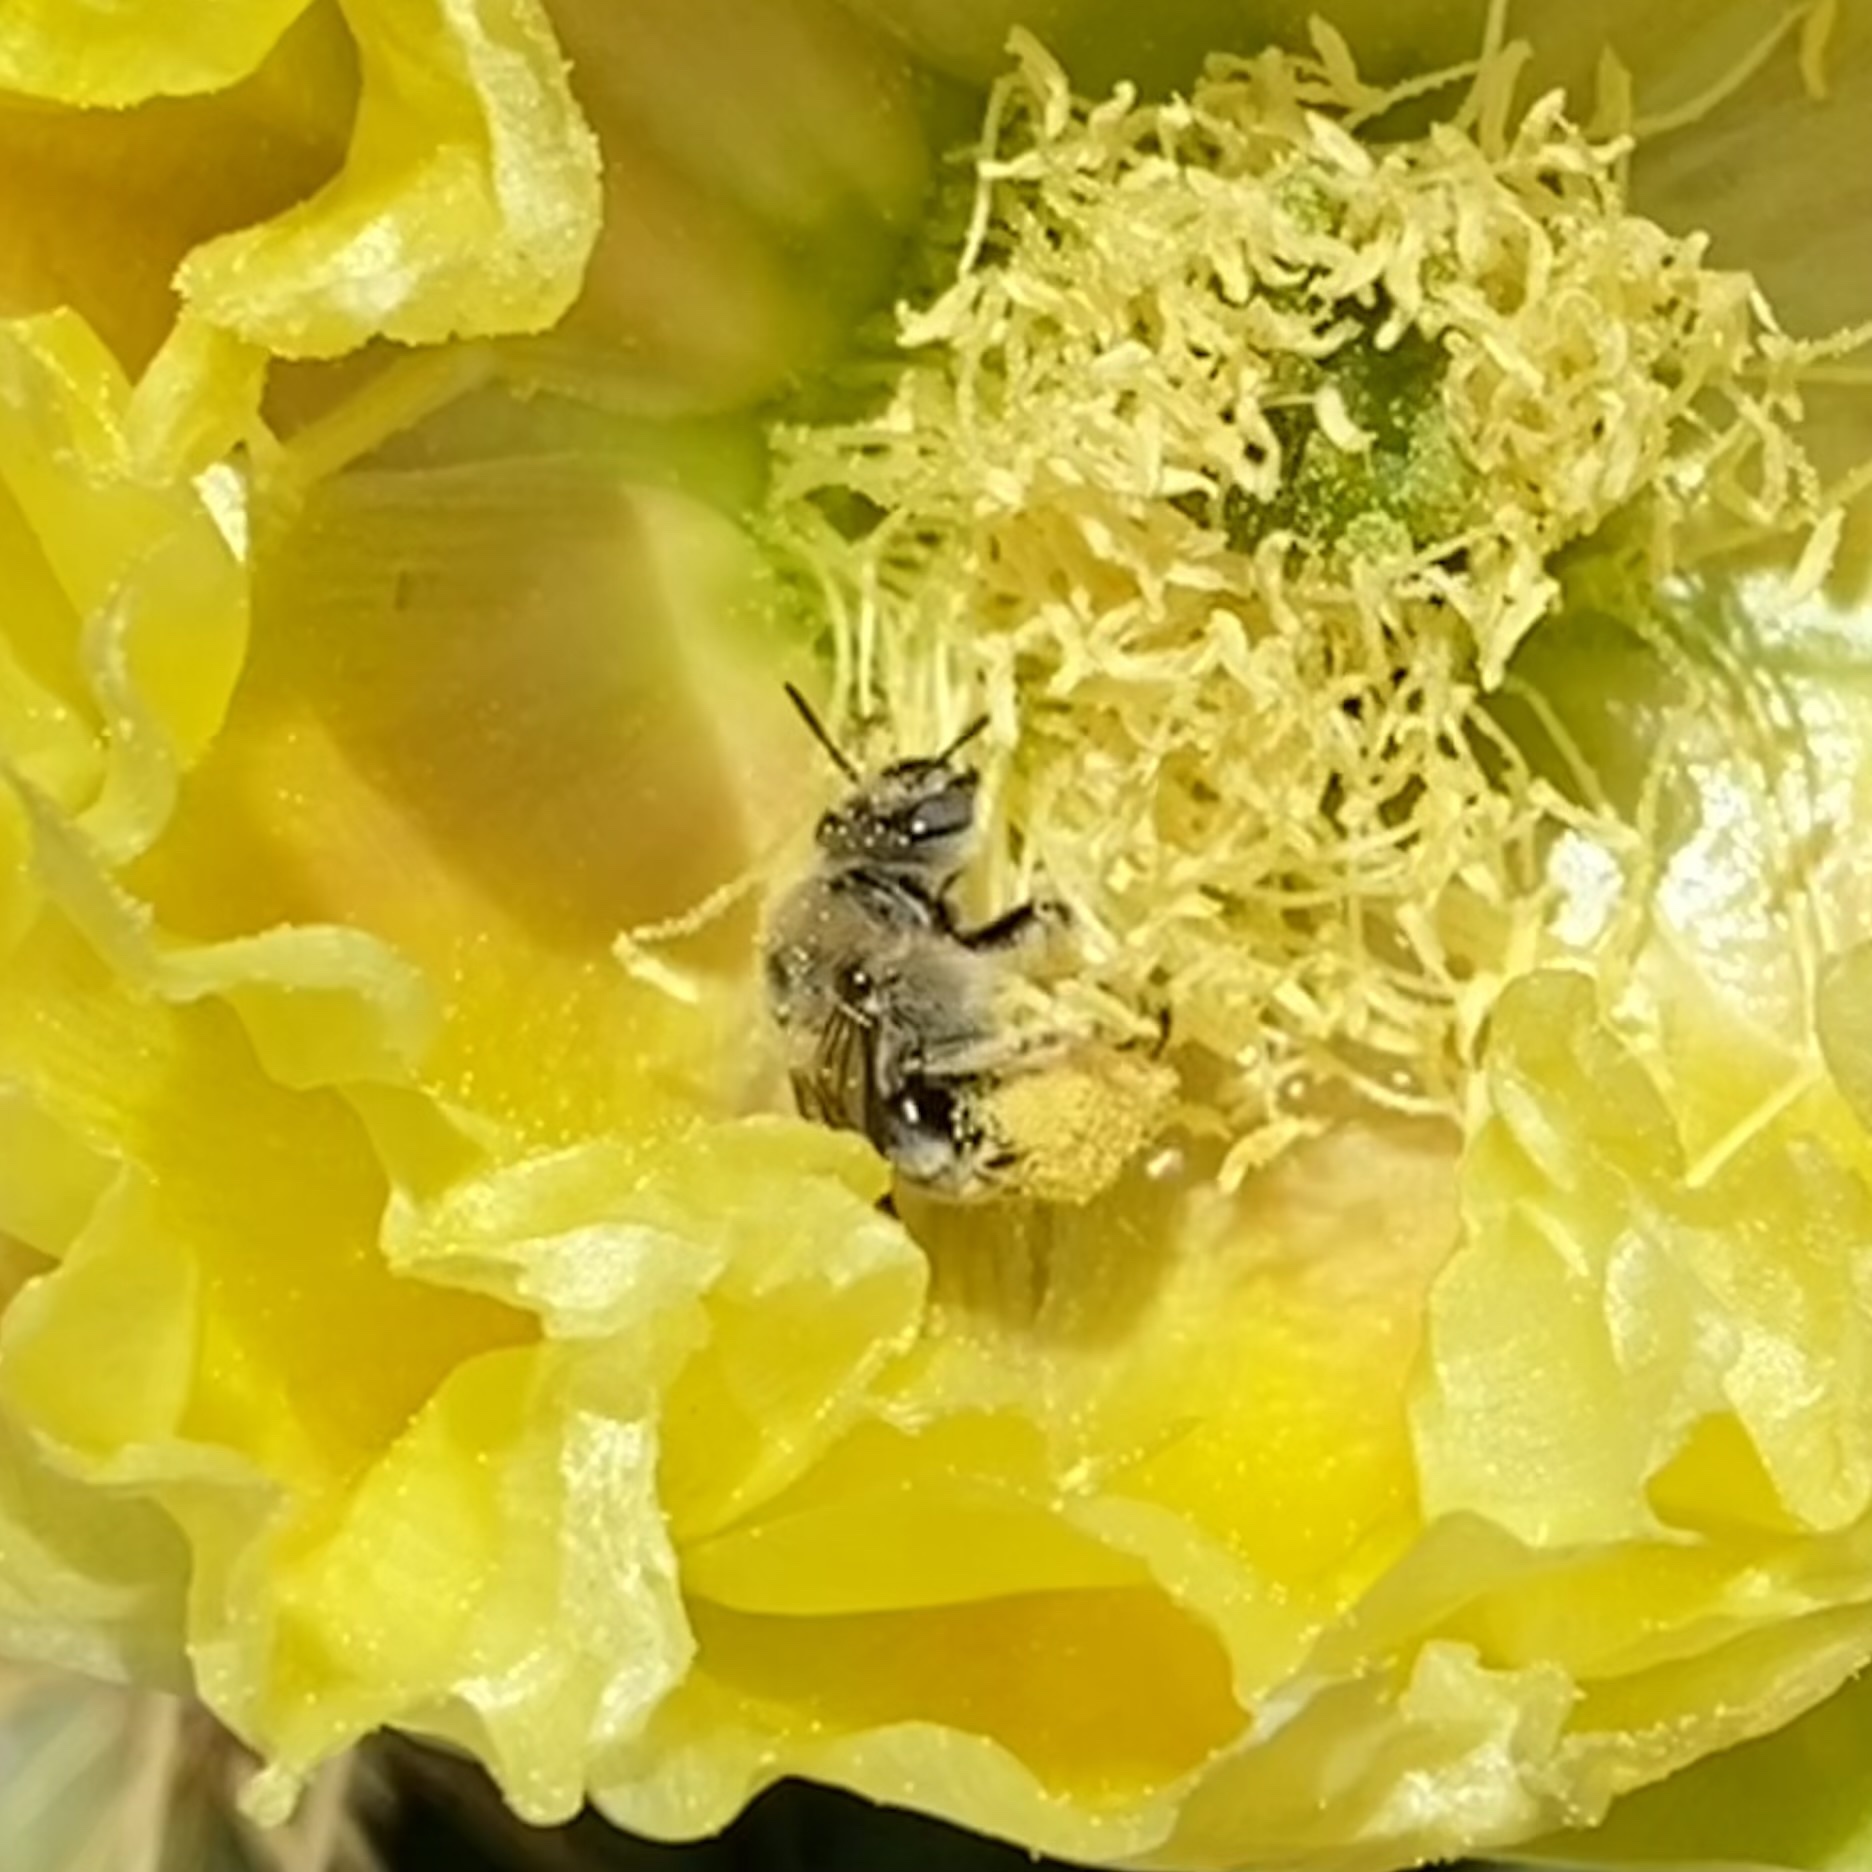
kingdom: Animalia
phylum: Arthropoda
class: Insecta
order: Hymenoptera
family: Apidae
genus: Diadasia
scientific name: Diadasia
